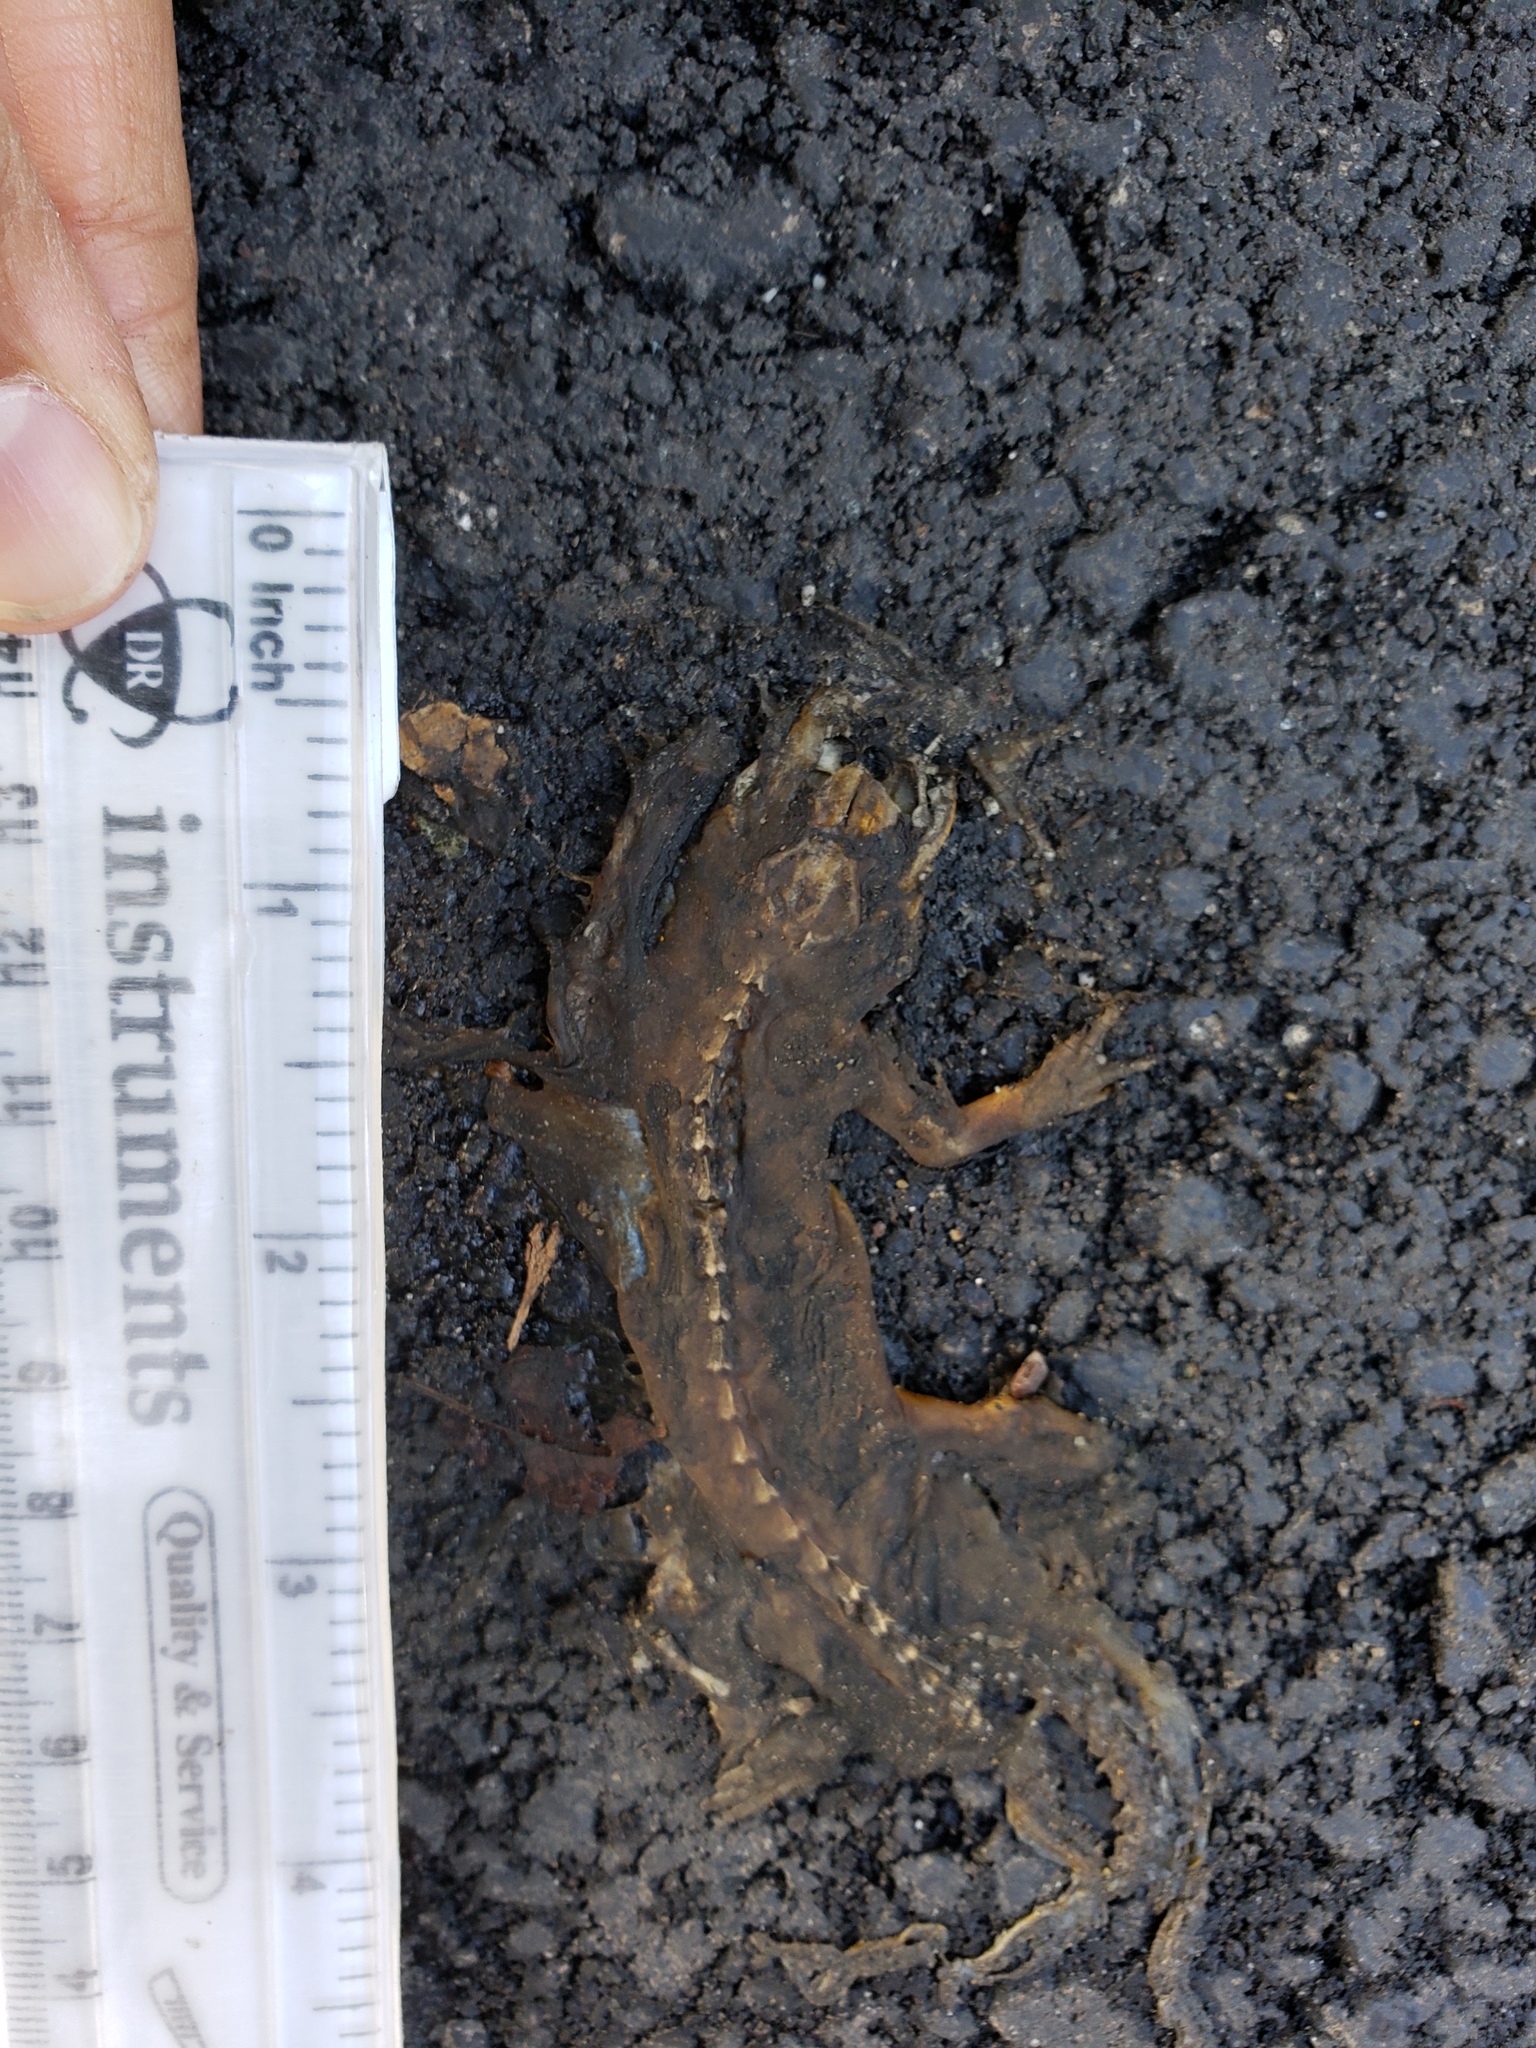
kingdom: Animalia
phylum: Chordata
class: Amphibia
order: Caudata
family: Salamandridae
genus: Taricha
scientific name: Taricha
